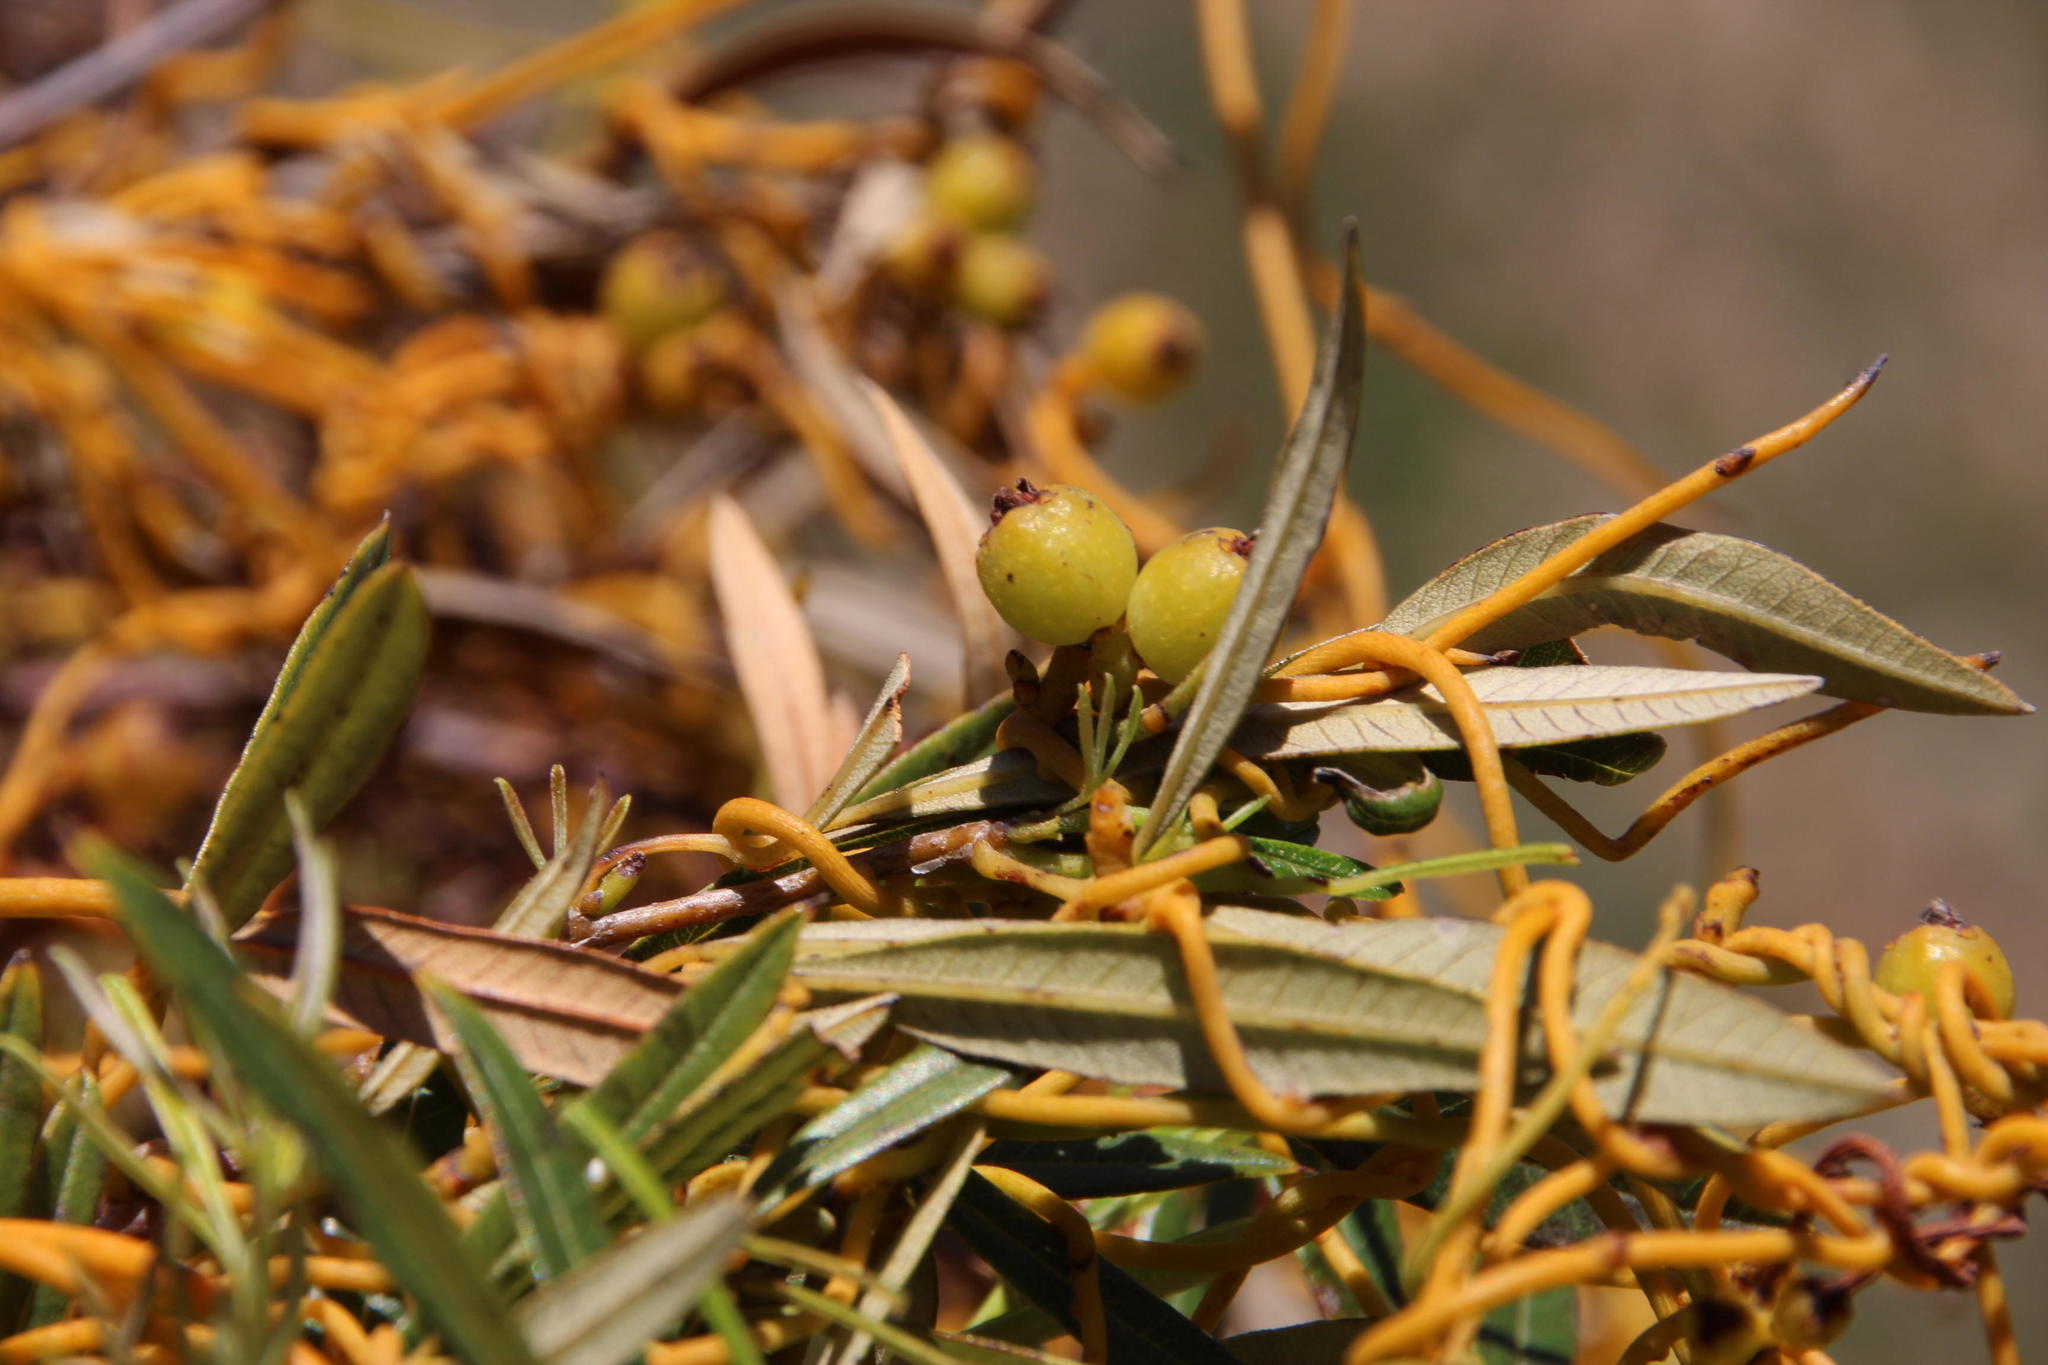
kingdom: Plantae
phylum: Tracheophyta
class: Magnoliopsida
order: Sapindales
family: Anacardiaceae
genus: Searsia
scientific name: Searsia angustifolia
